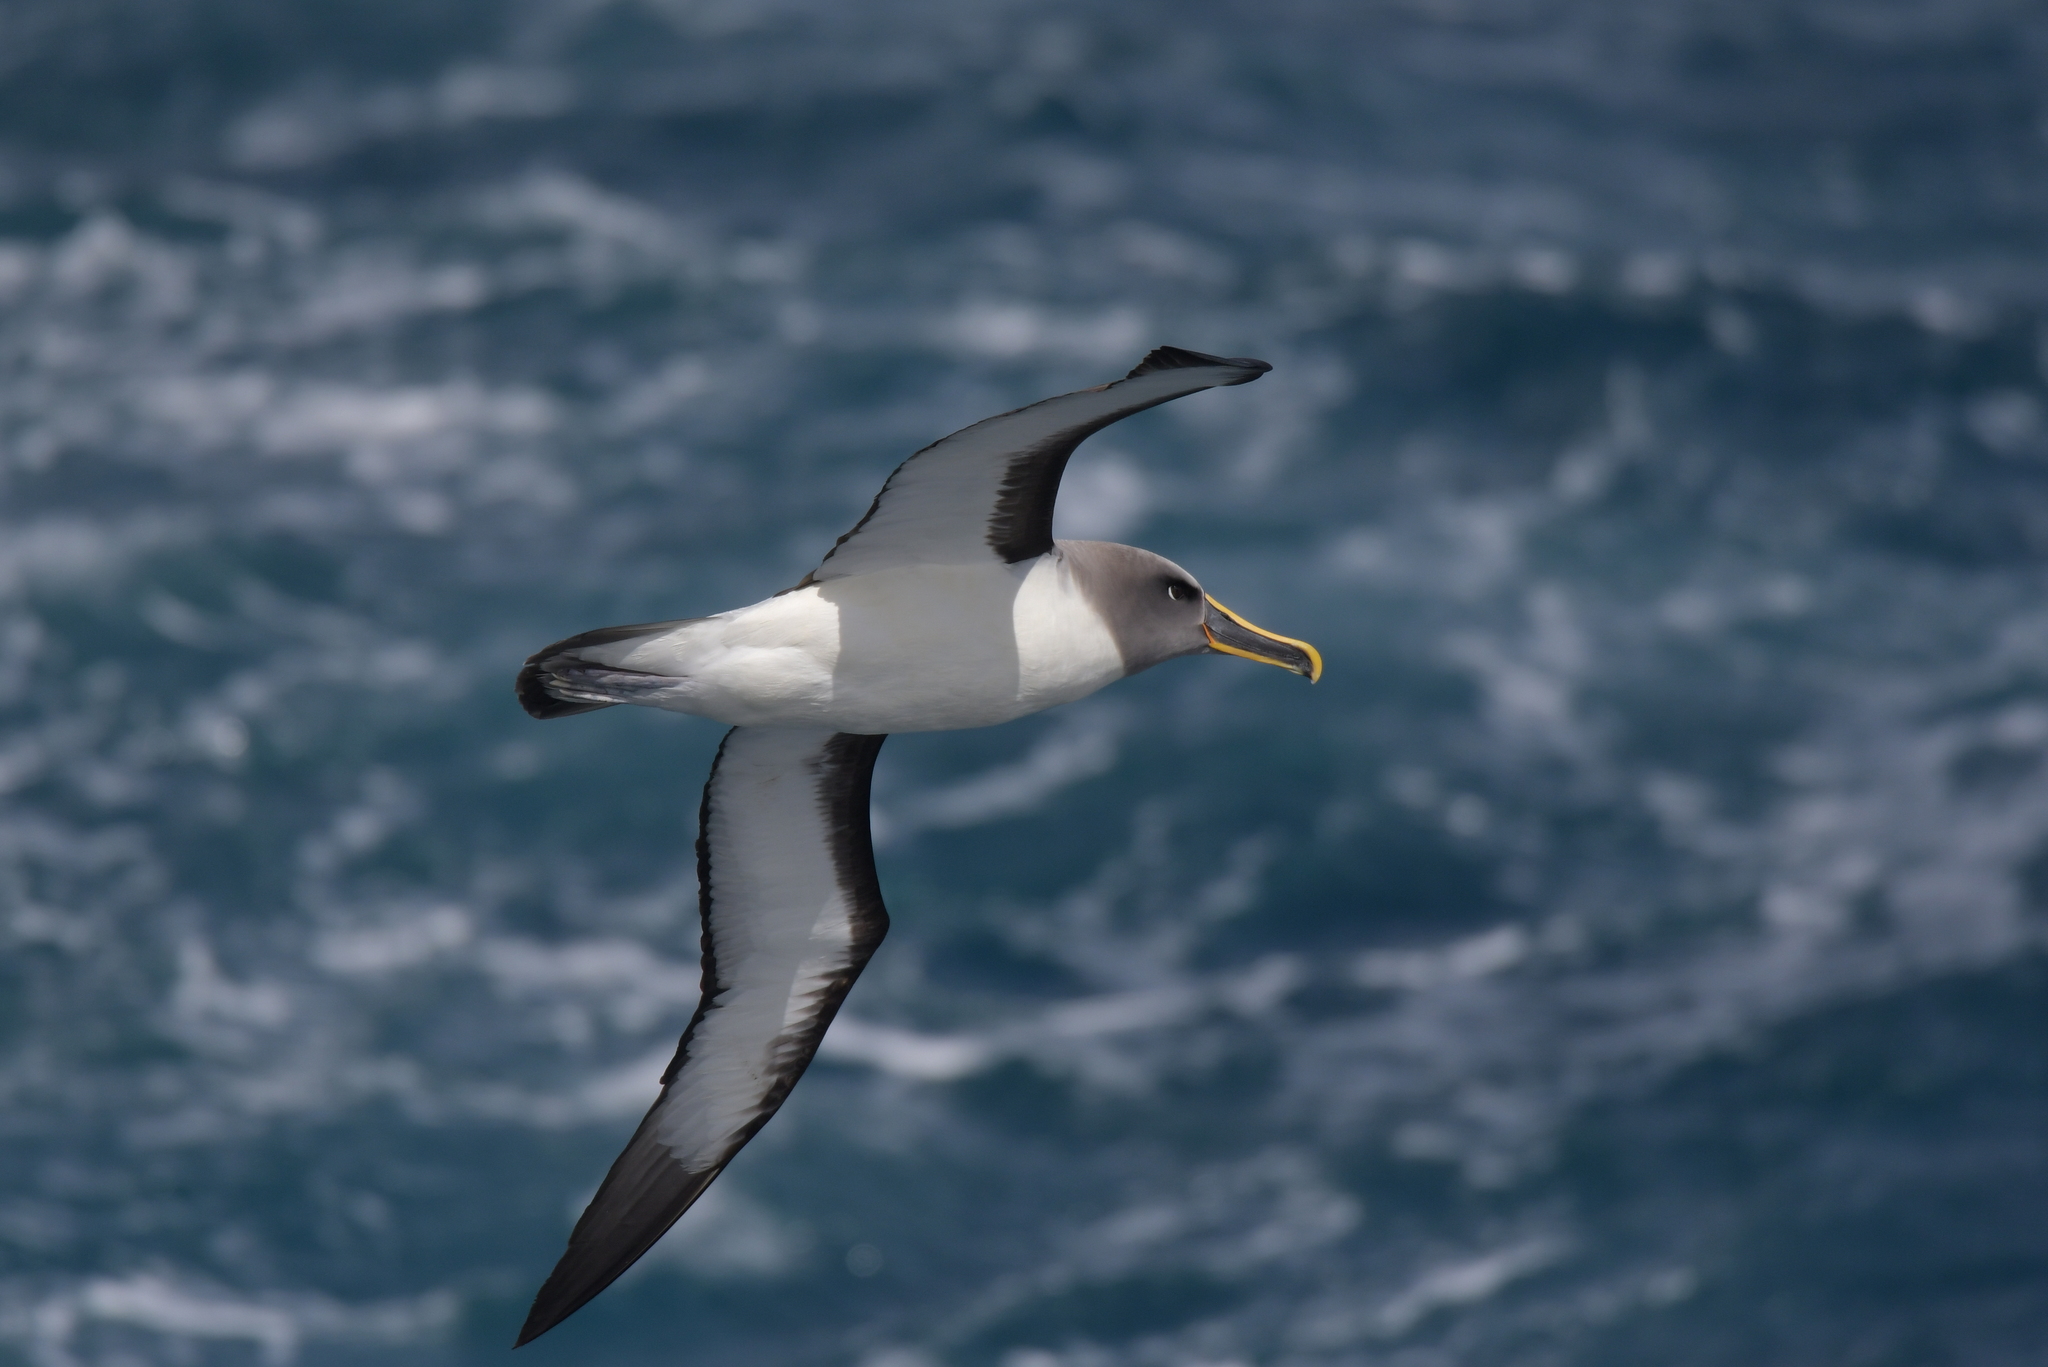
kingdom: Animalia
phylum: Chordata
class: Aves
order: Procellariiformes
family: Diomedeidae
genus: Thalassarche
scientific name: Thalassarche bulleri
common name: Buller's albatross
